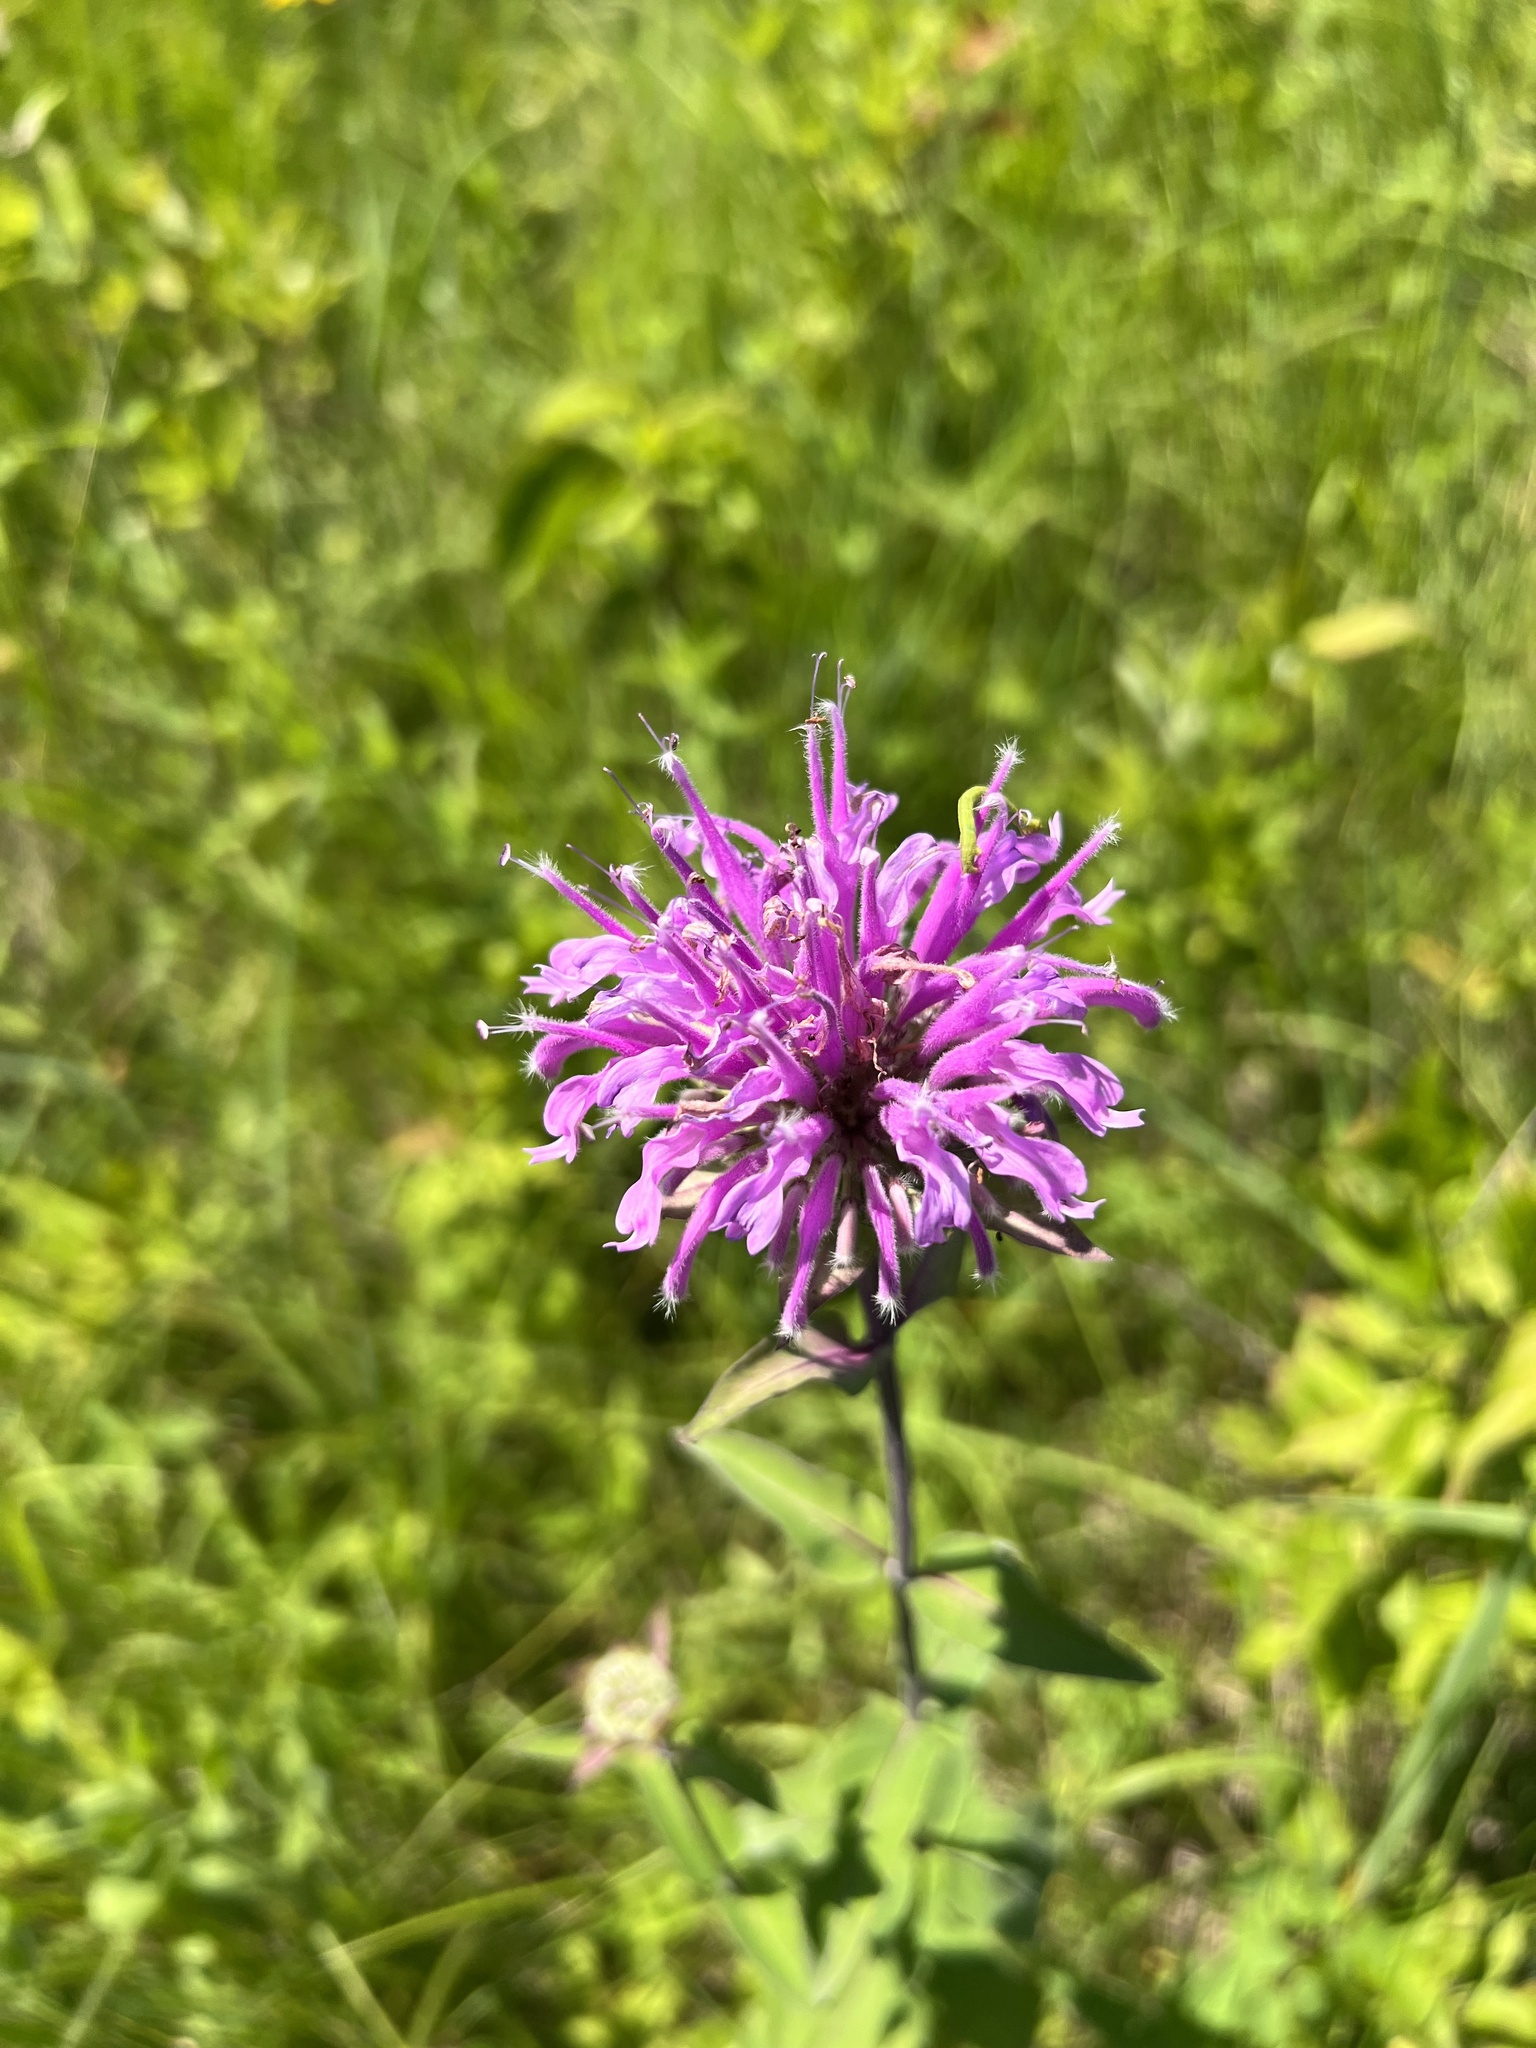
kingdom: Plantae
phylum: Tracheophyta
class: Magnoliopsida
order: Lamiales
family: Lamiaceae
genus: Monarda
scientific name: Monarda fistulosa
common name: Purple beebalm
